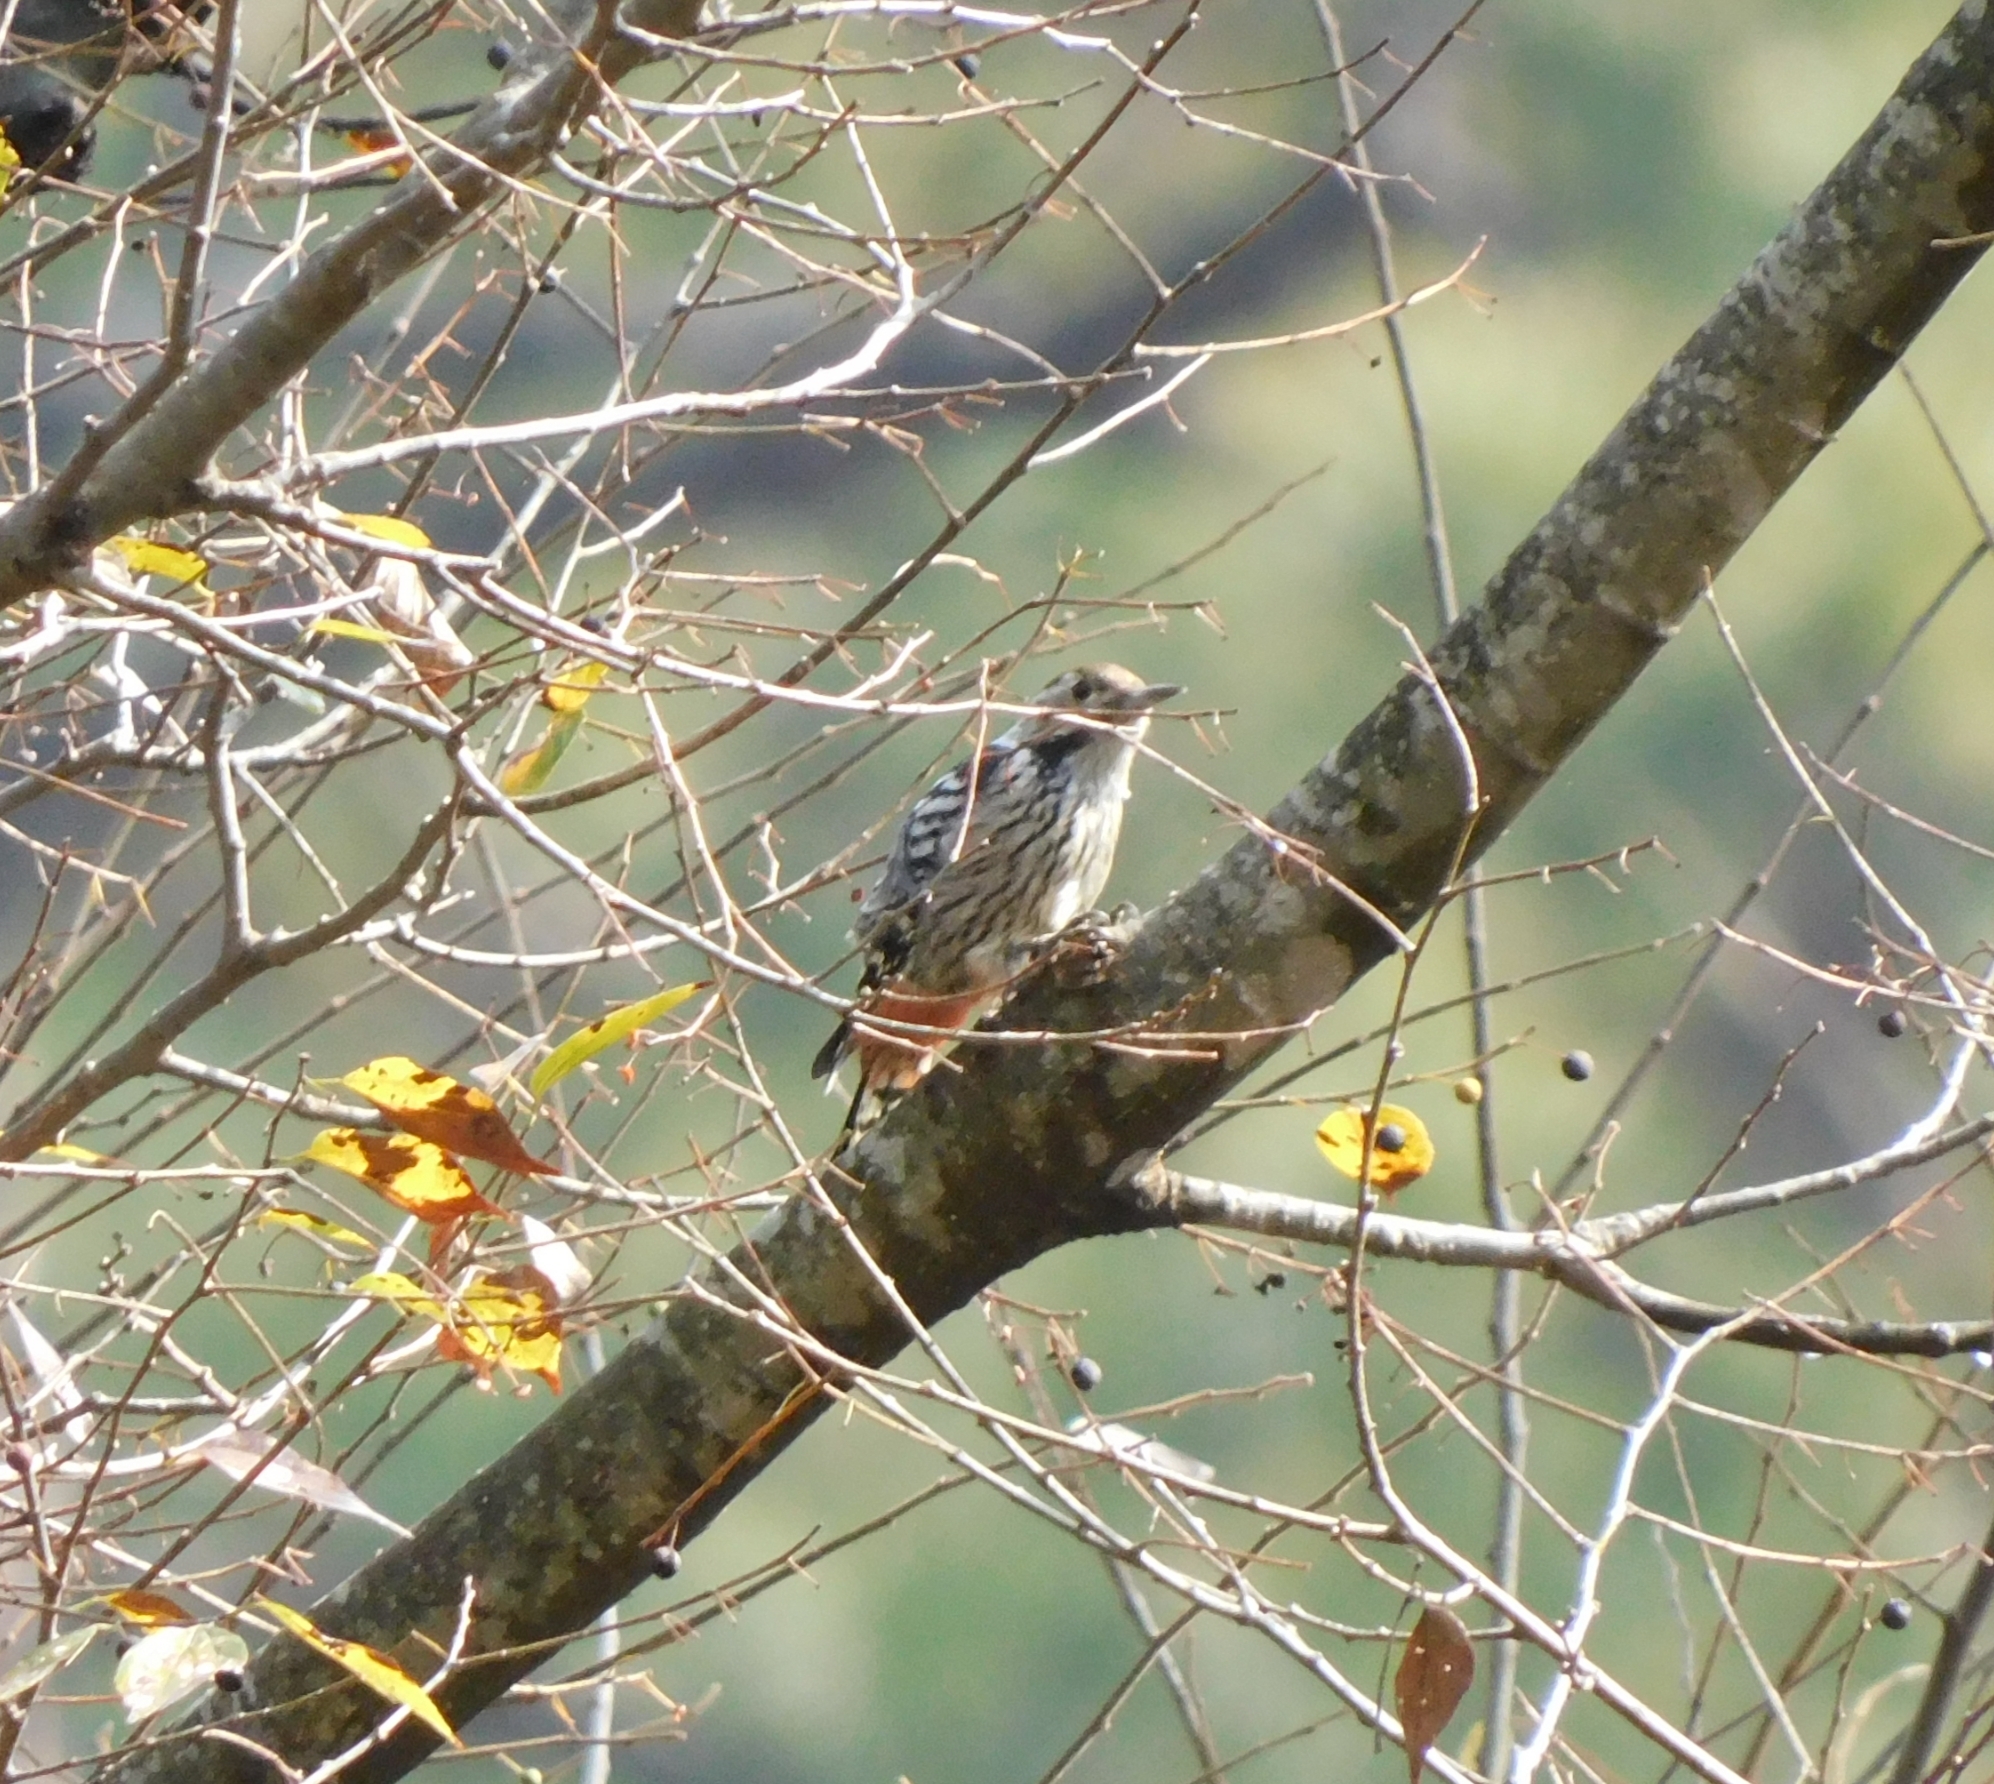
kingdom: Animalia
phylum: Chordata
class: Aves
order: Piciformes
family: Picidae
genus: Dendrocoptes
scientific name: Dendrocoptes auriceps
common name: Brown-fronted woodpecker
